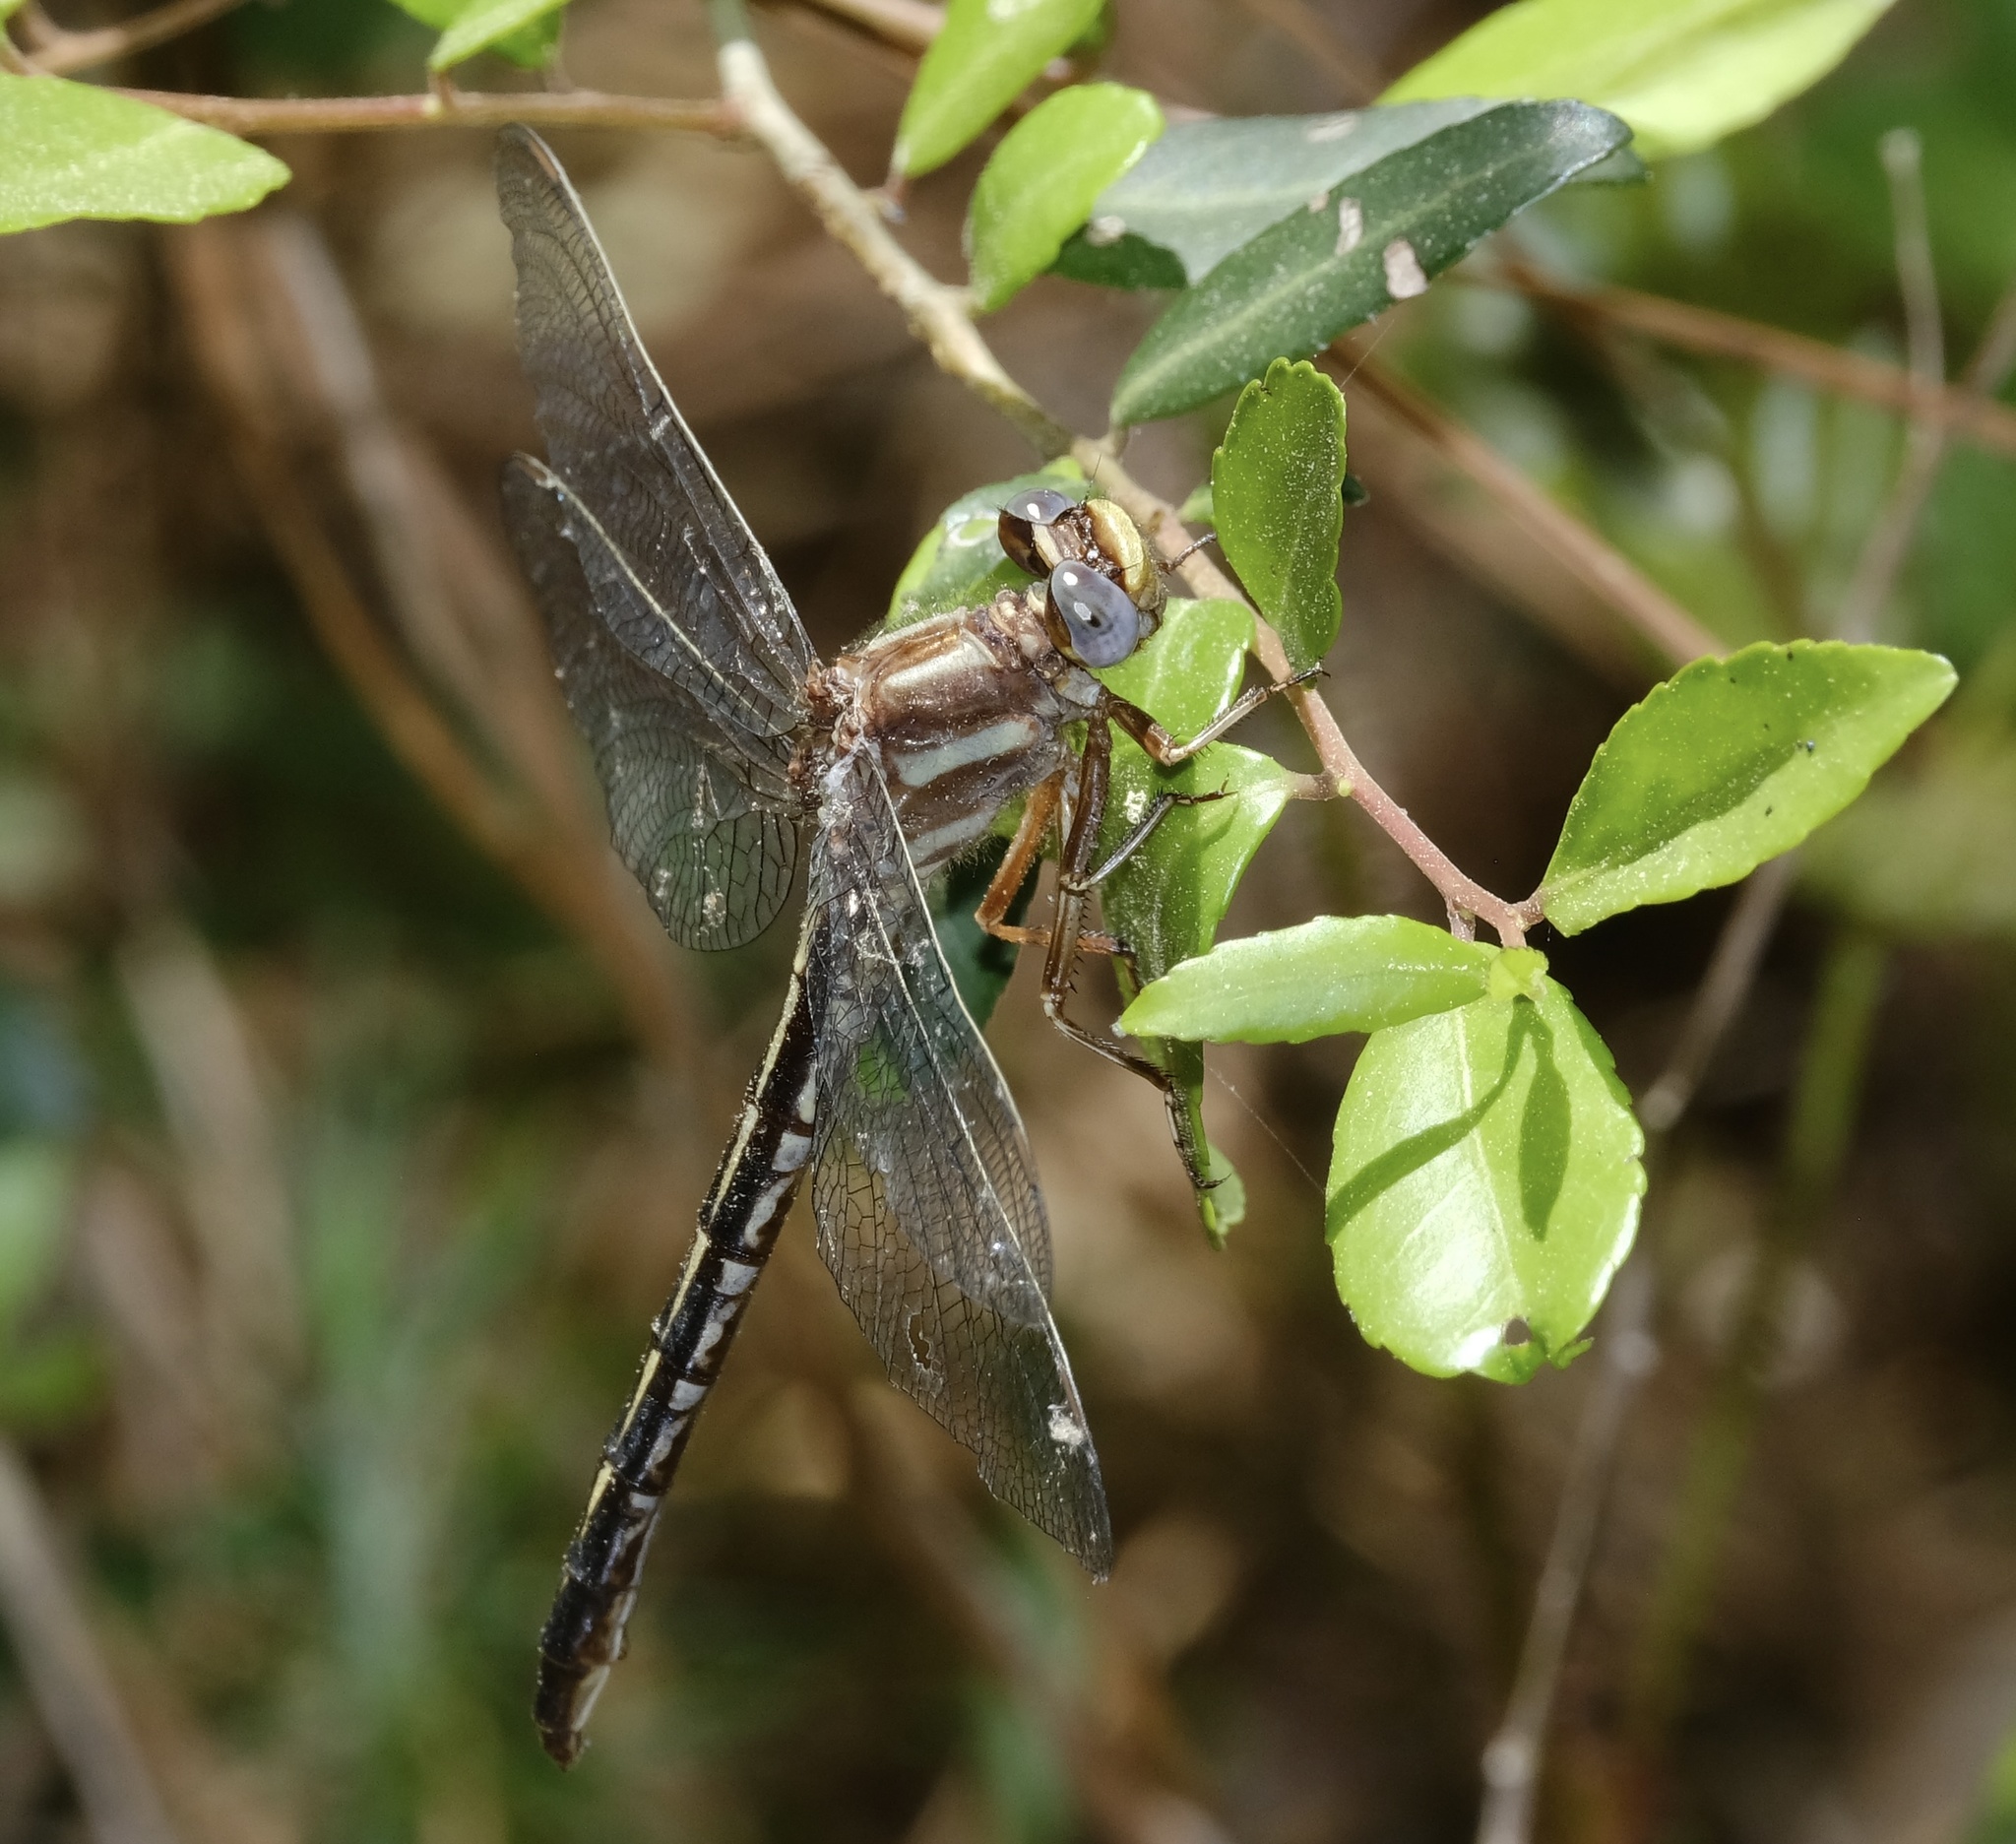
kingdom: Animalia
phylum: Arthropoda
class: Insecta
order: Odonata
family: Gomphidae
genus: Phanogomphus
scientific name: Phanogomphus lividus
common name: Ashy clubtail
